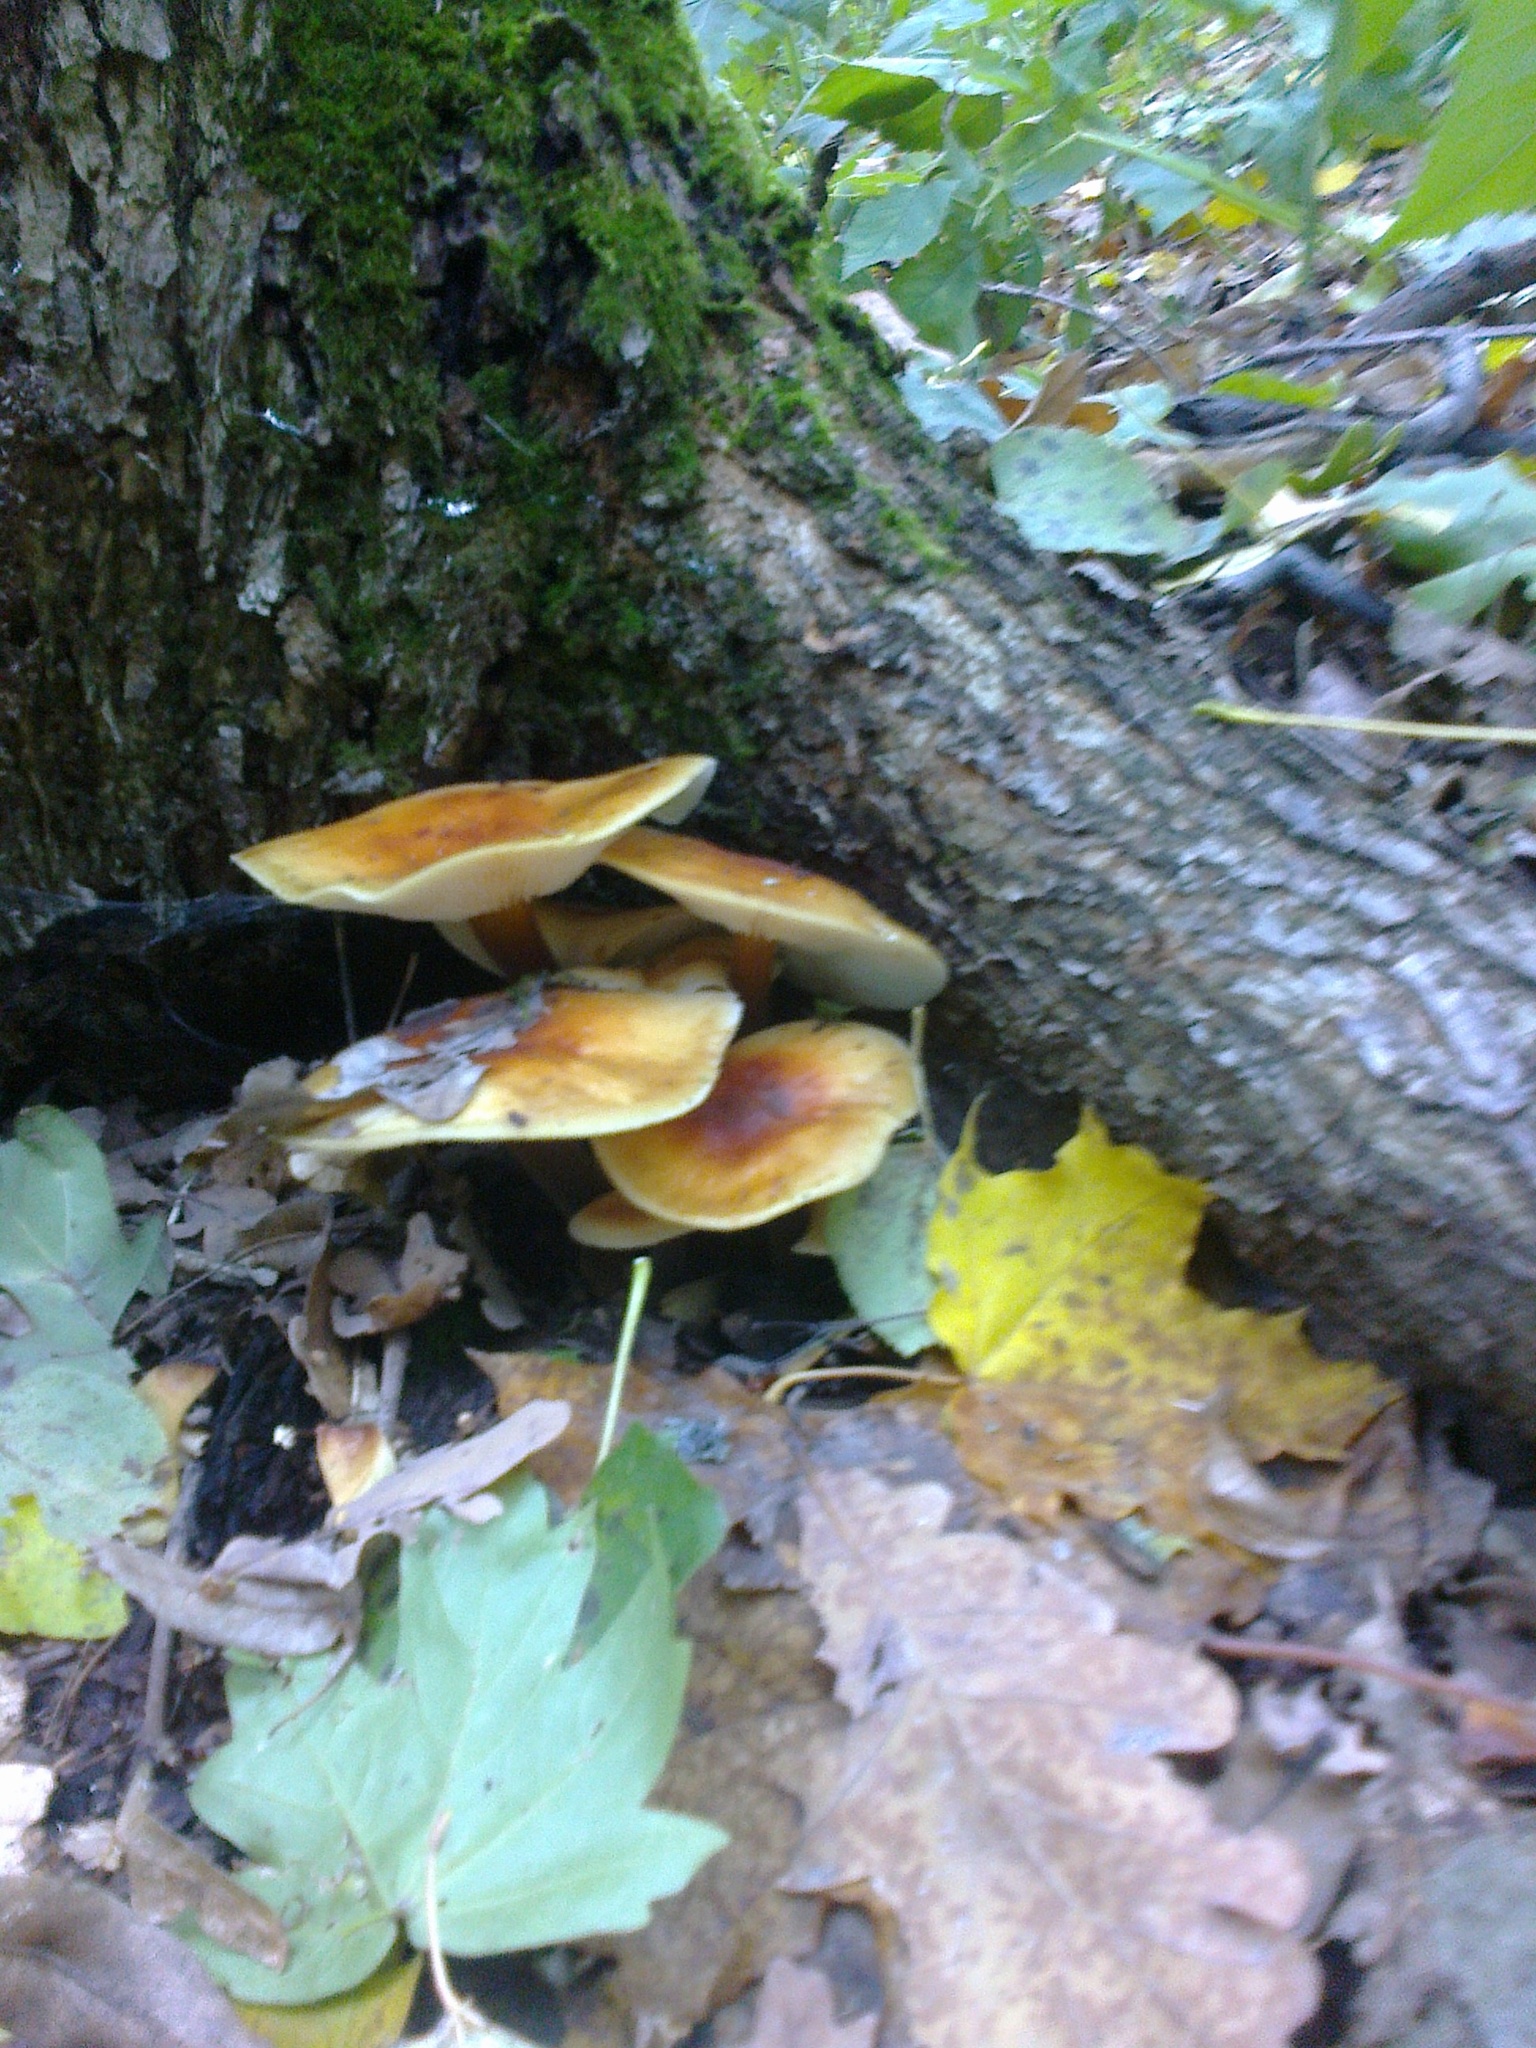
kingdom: Fungi
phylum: Basidiomycota
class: Agaricomycetes
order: Agaricales
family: Physalacriaceae
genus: Flammulina
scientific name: Flammulina
